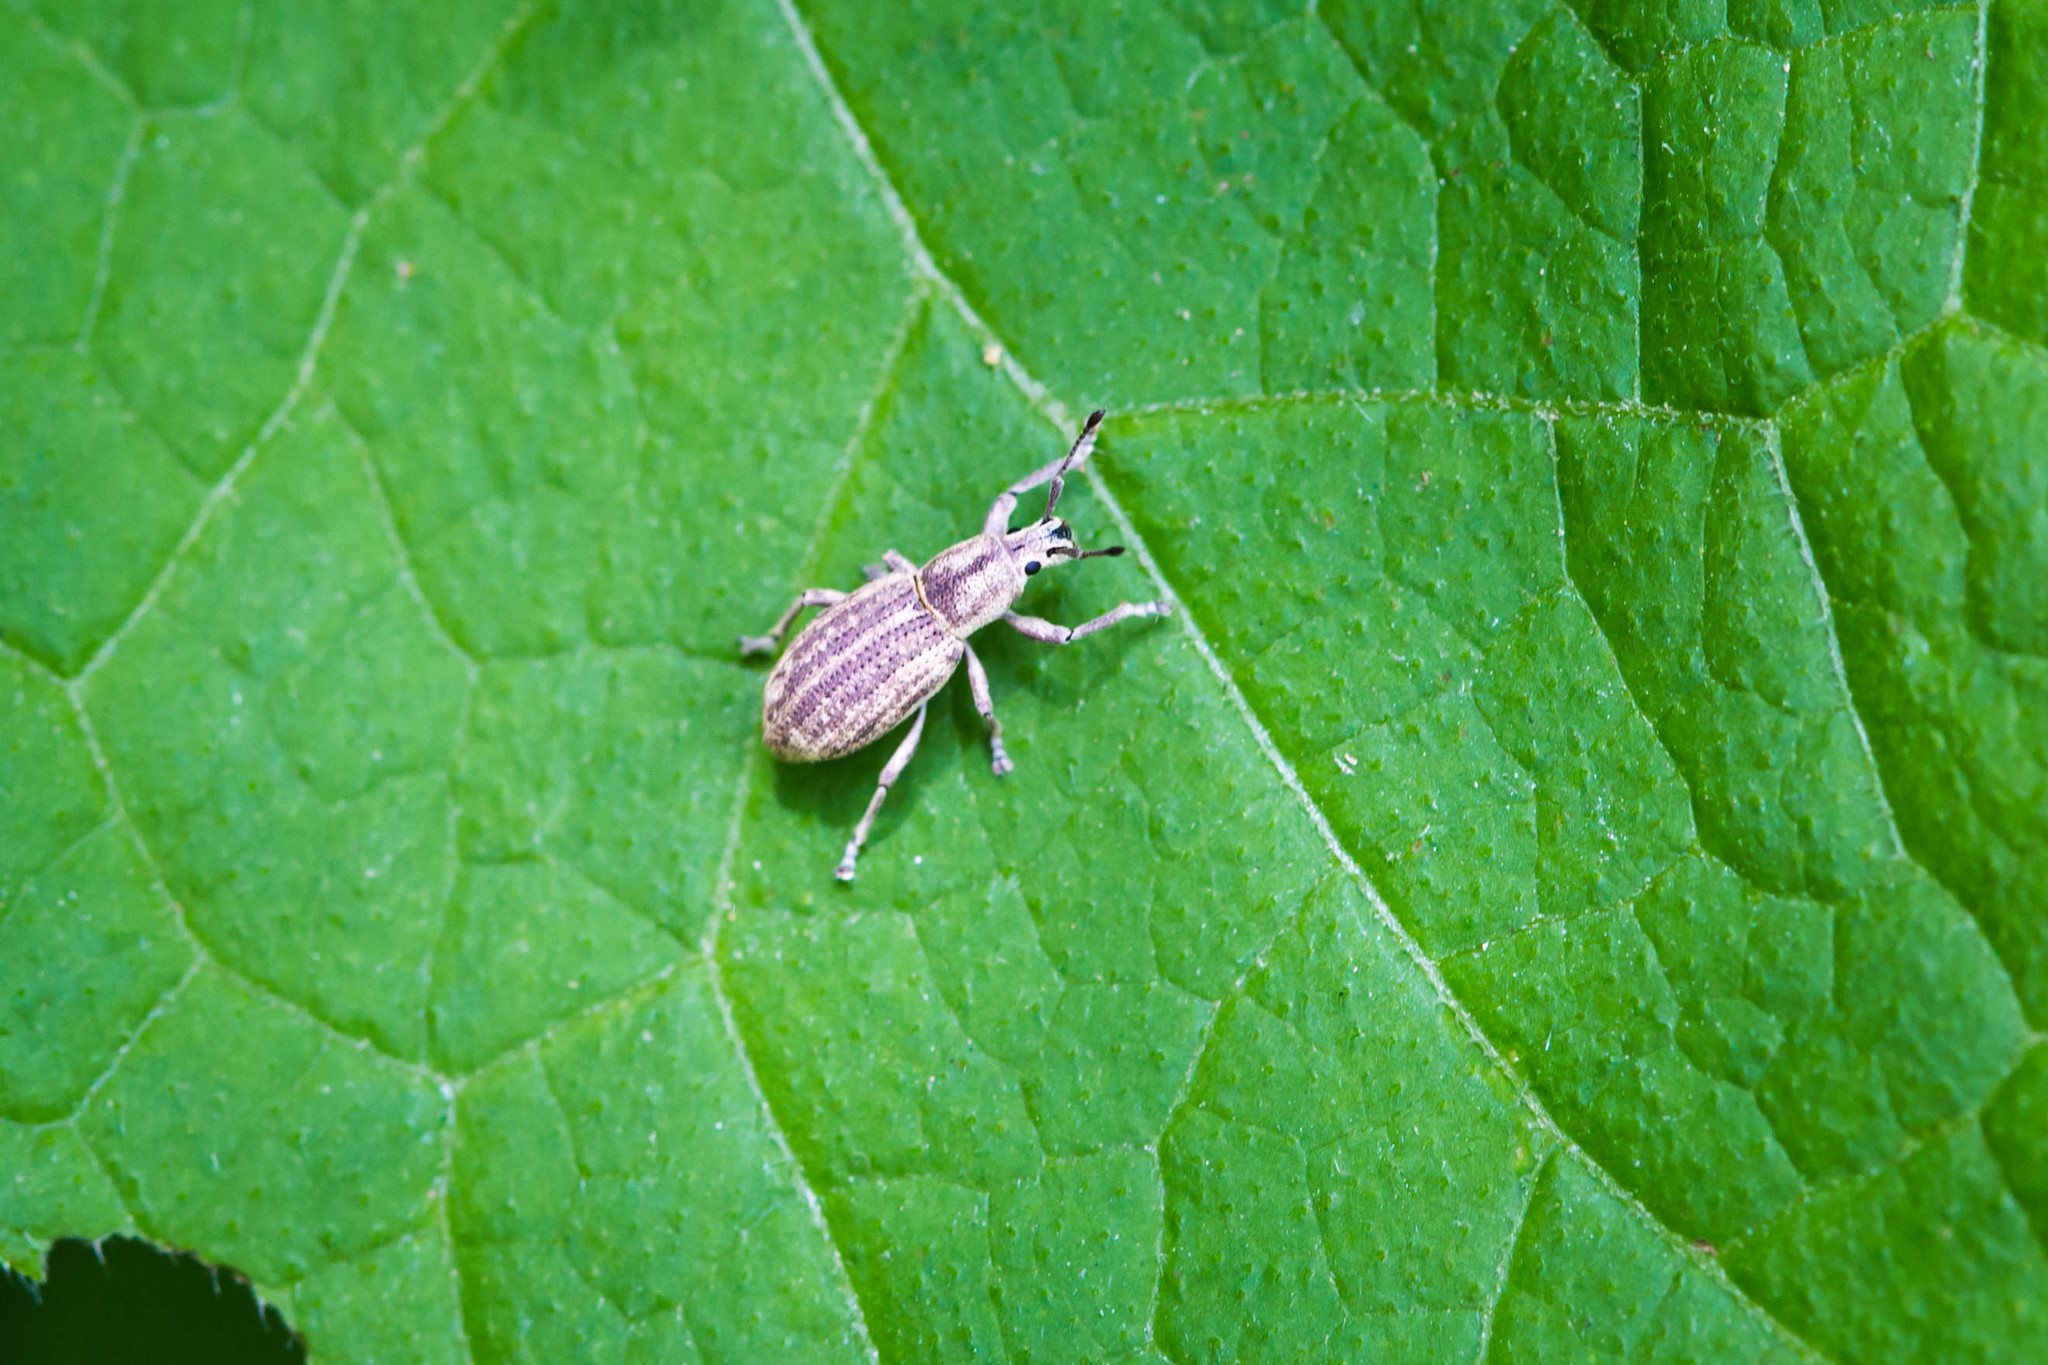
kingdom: Animalia
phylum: Arthropoda
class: Insecta
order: Coleoptera
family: Curculionidae
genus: Aphrastus
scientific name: Aphrastus taeniatus
